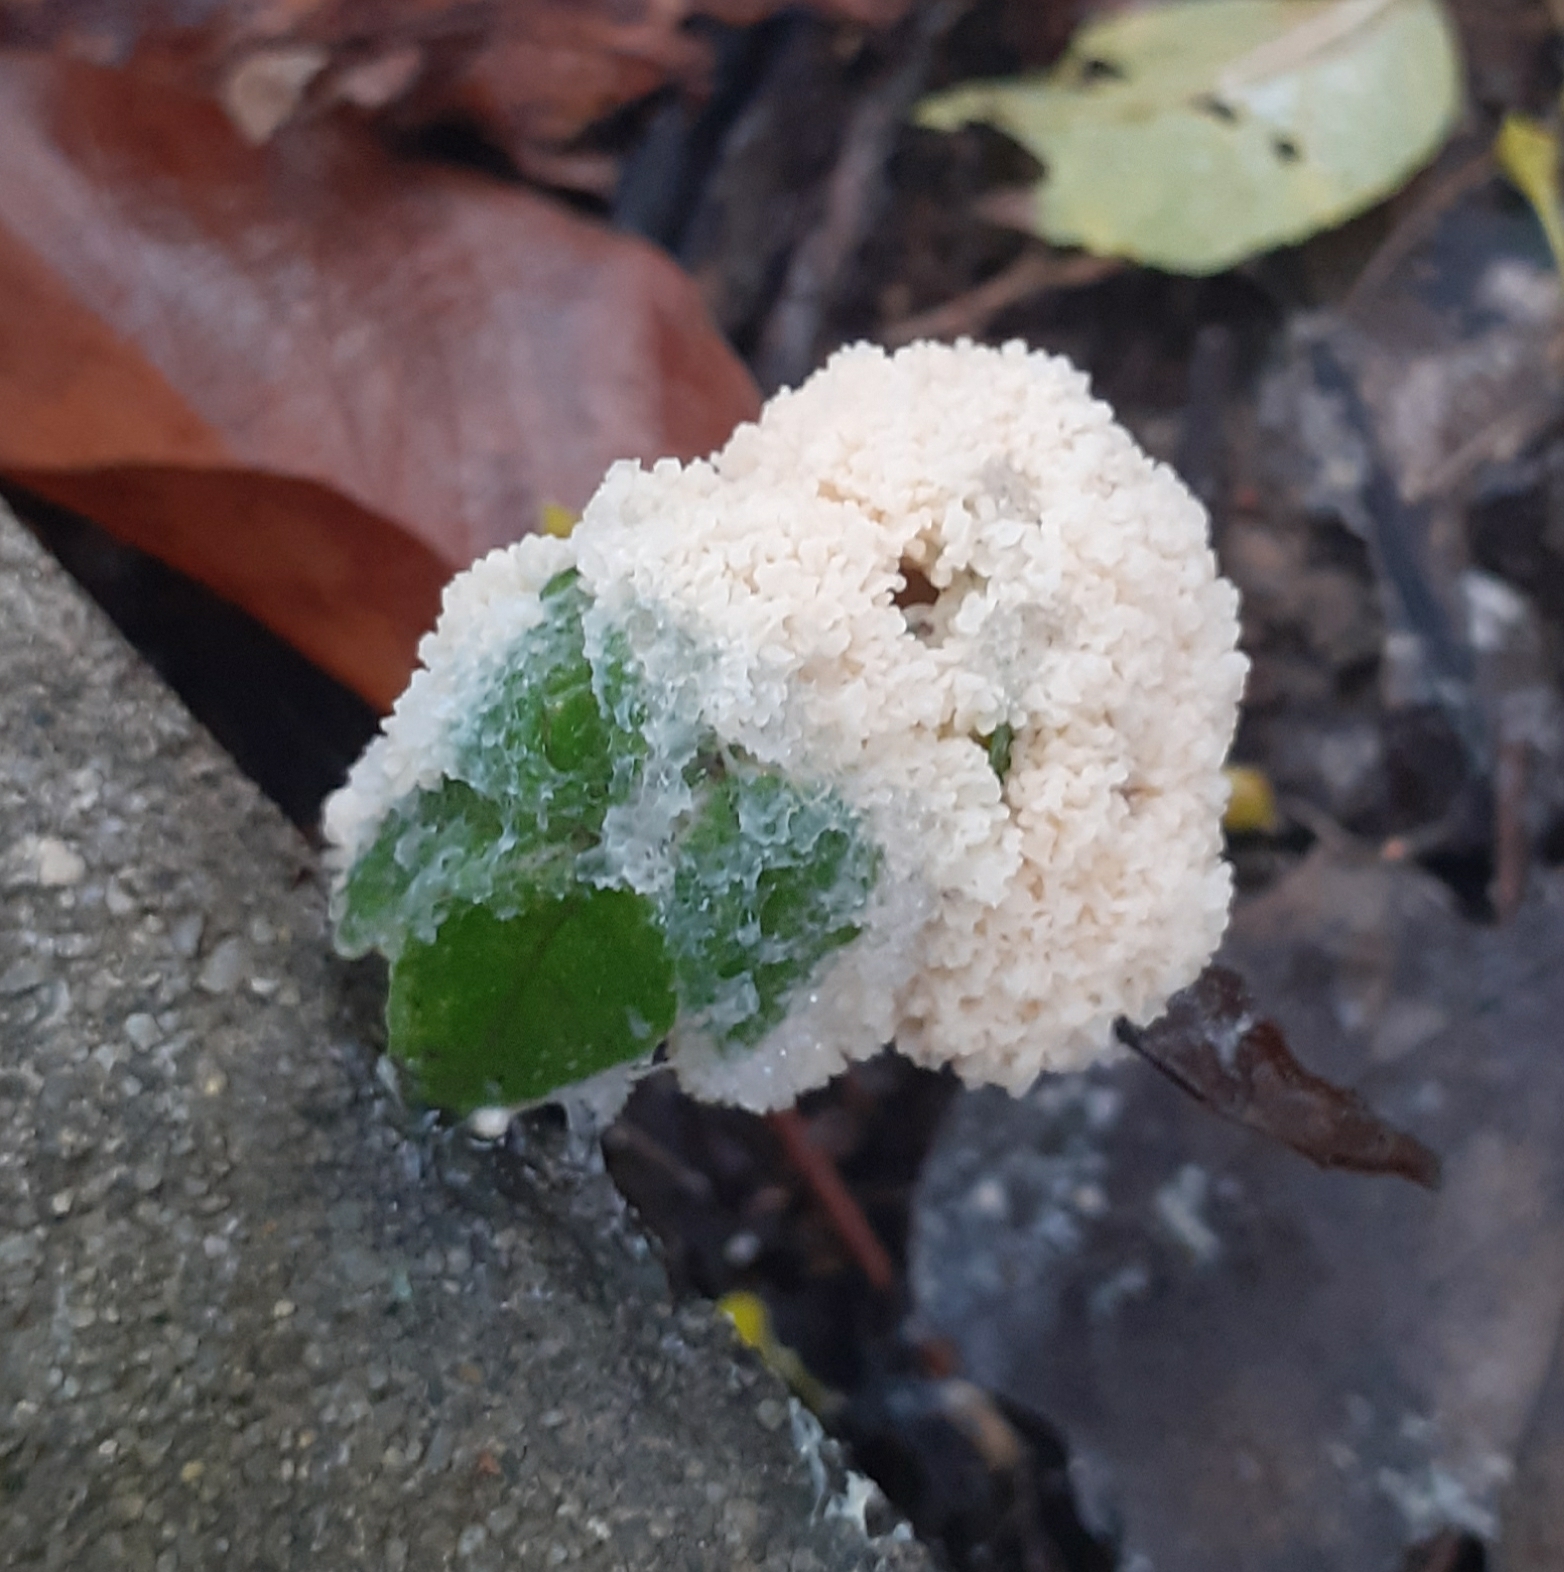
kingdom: Protozoa
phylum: Mycetozoa
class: Myxomycetes
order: Physarales
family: Physaraceae
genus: Didymium
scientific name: Didymium
